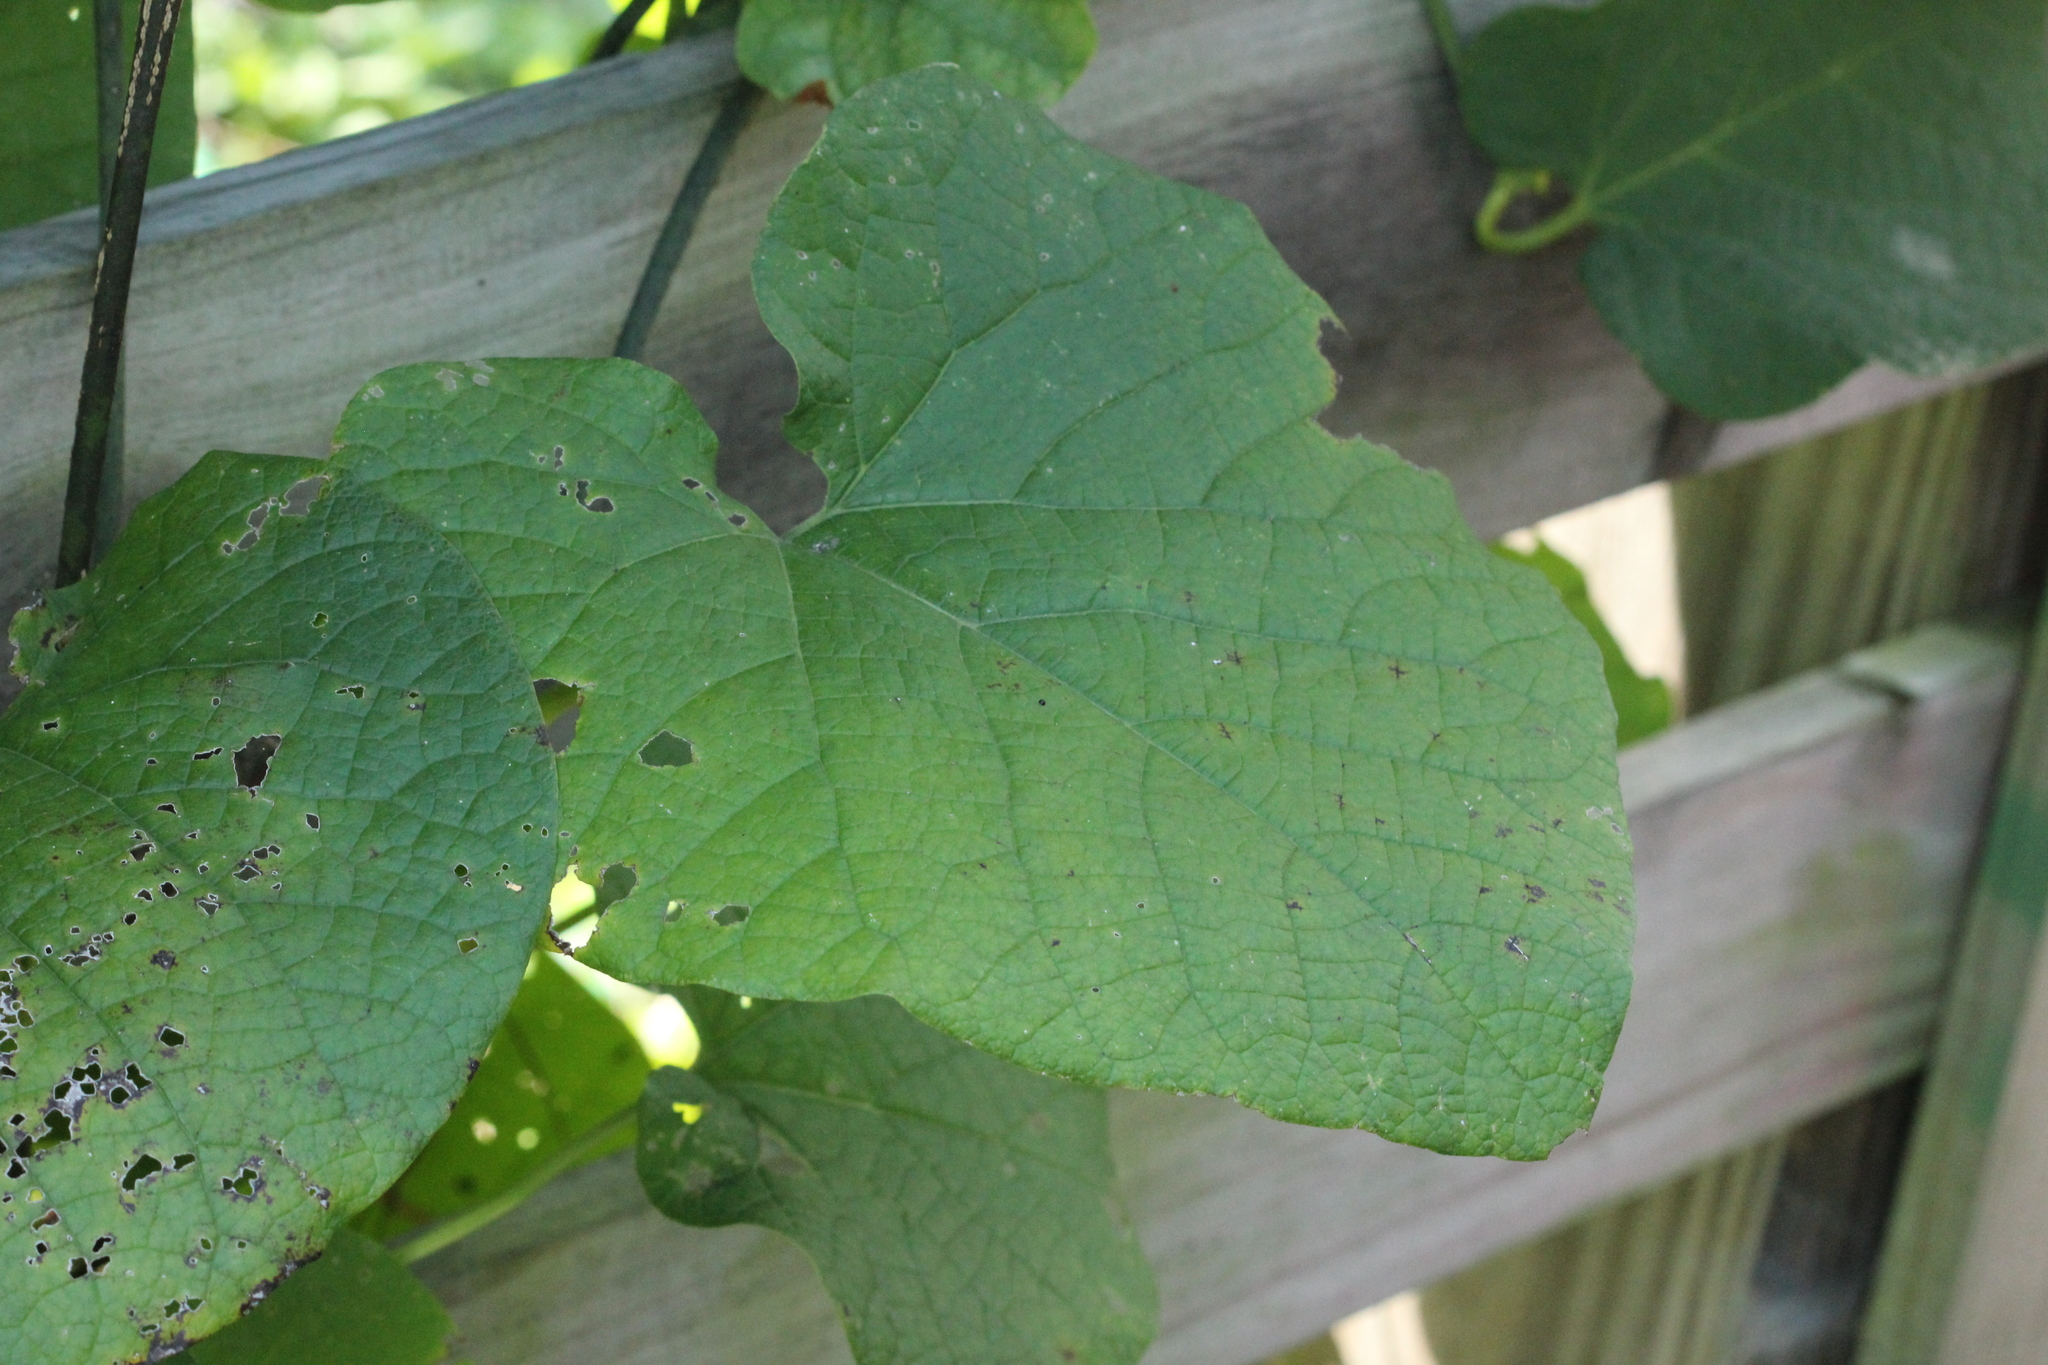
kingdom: Plantae
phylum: Tracheophyta
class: Magnoliopsida
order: Piperales
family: Aristolochiaceae
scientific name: Aristolochiaceae
